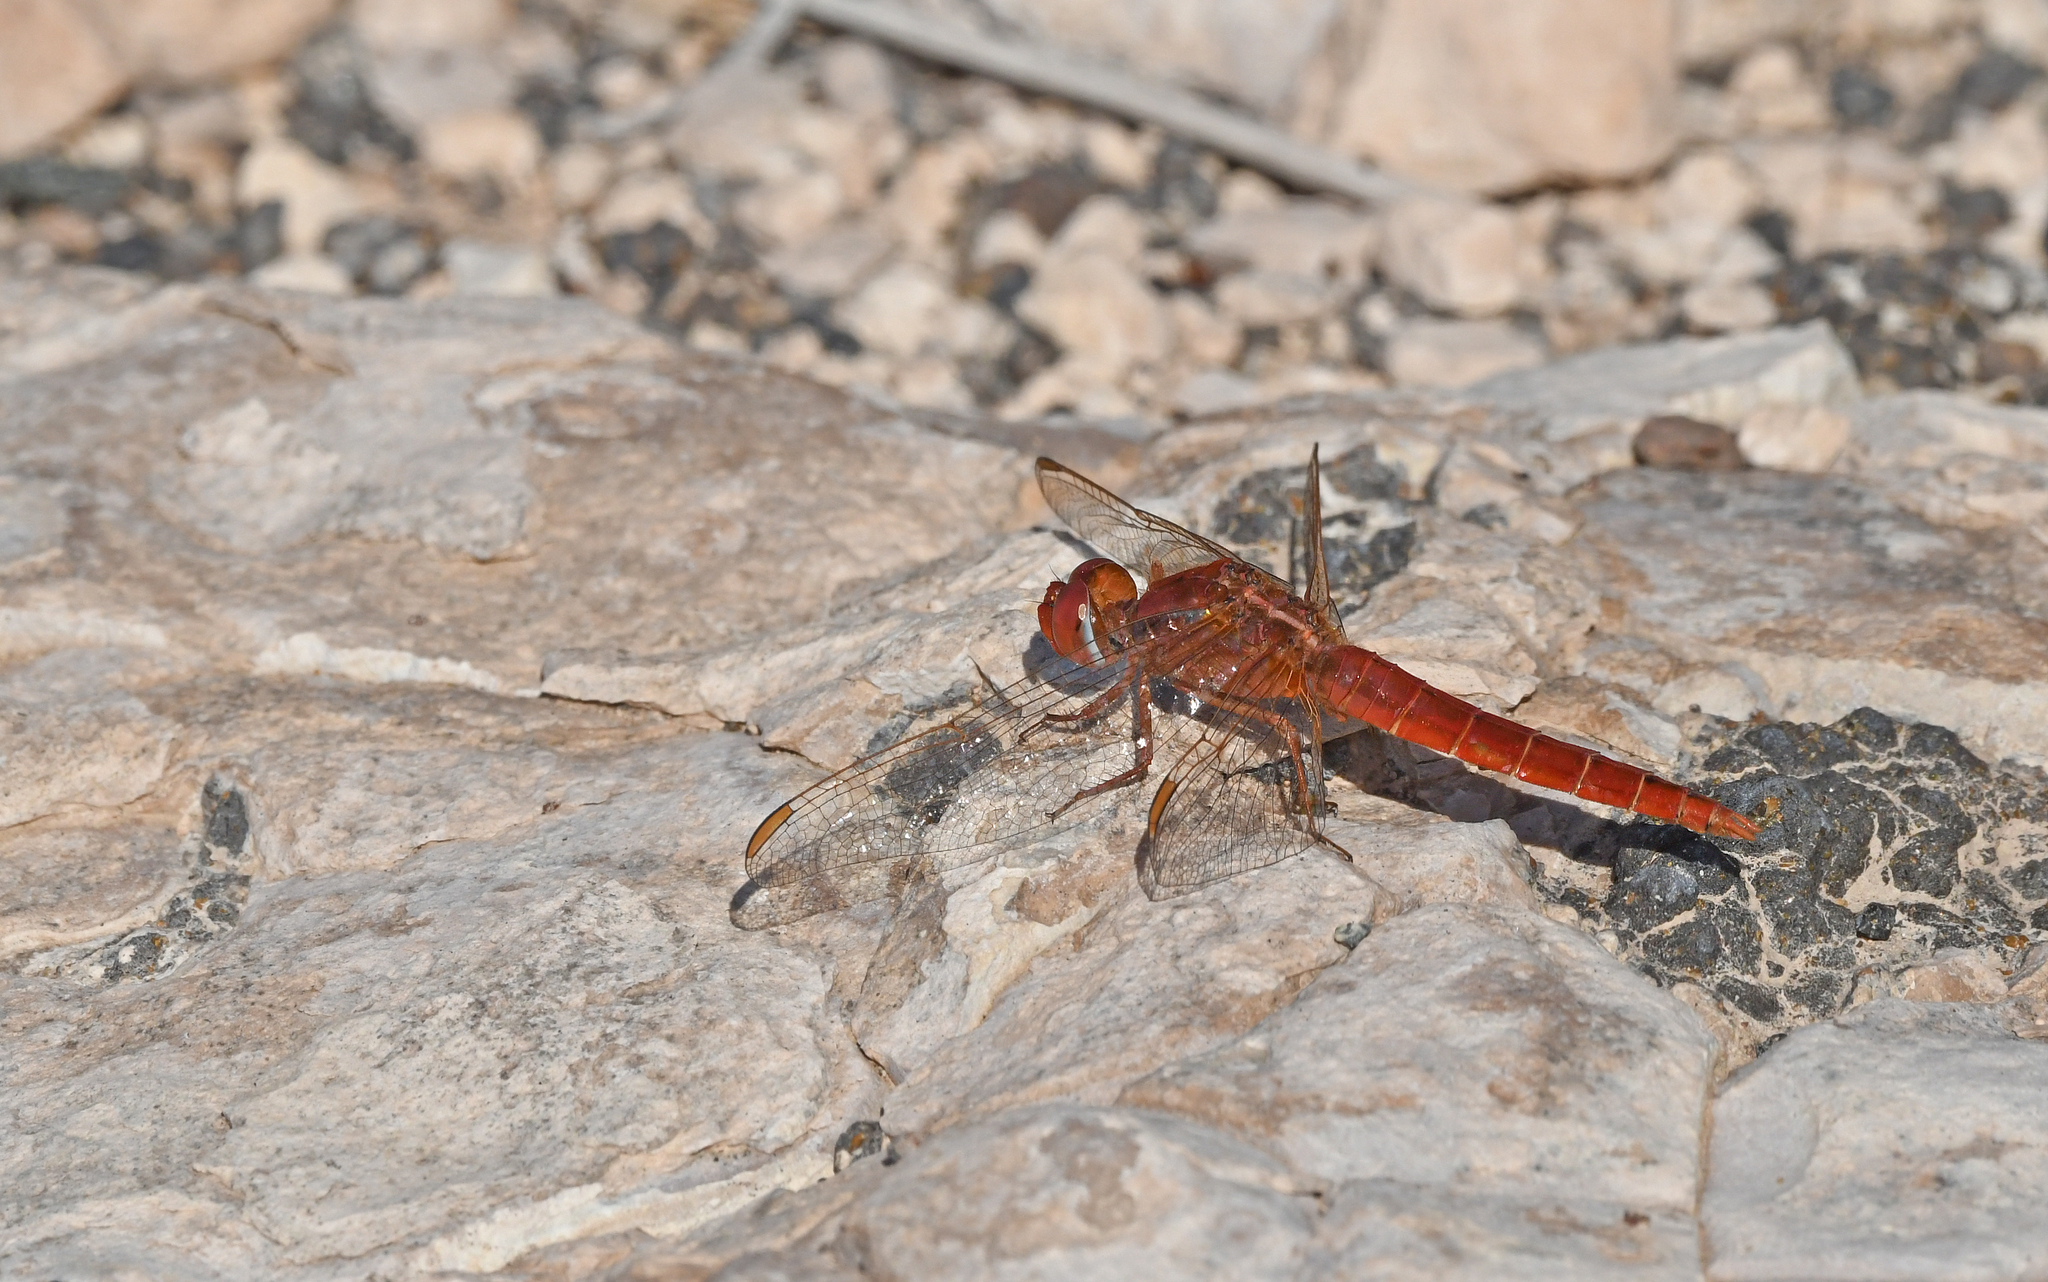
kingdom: Animalia
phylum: Arthropoda
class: Insecta
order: Odonata
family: Libellulidae
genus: Crocothemis
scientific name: Crocothemis erythraea
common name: Scarlet dragonfly
